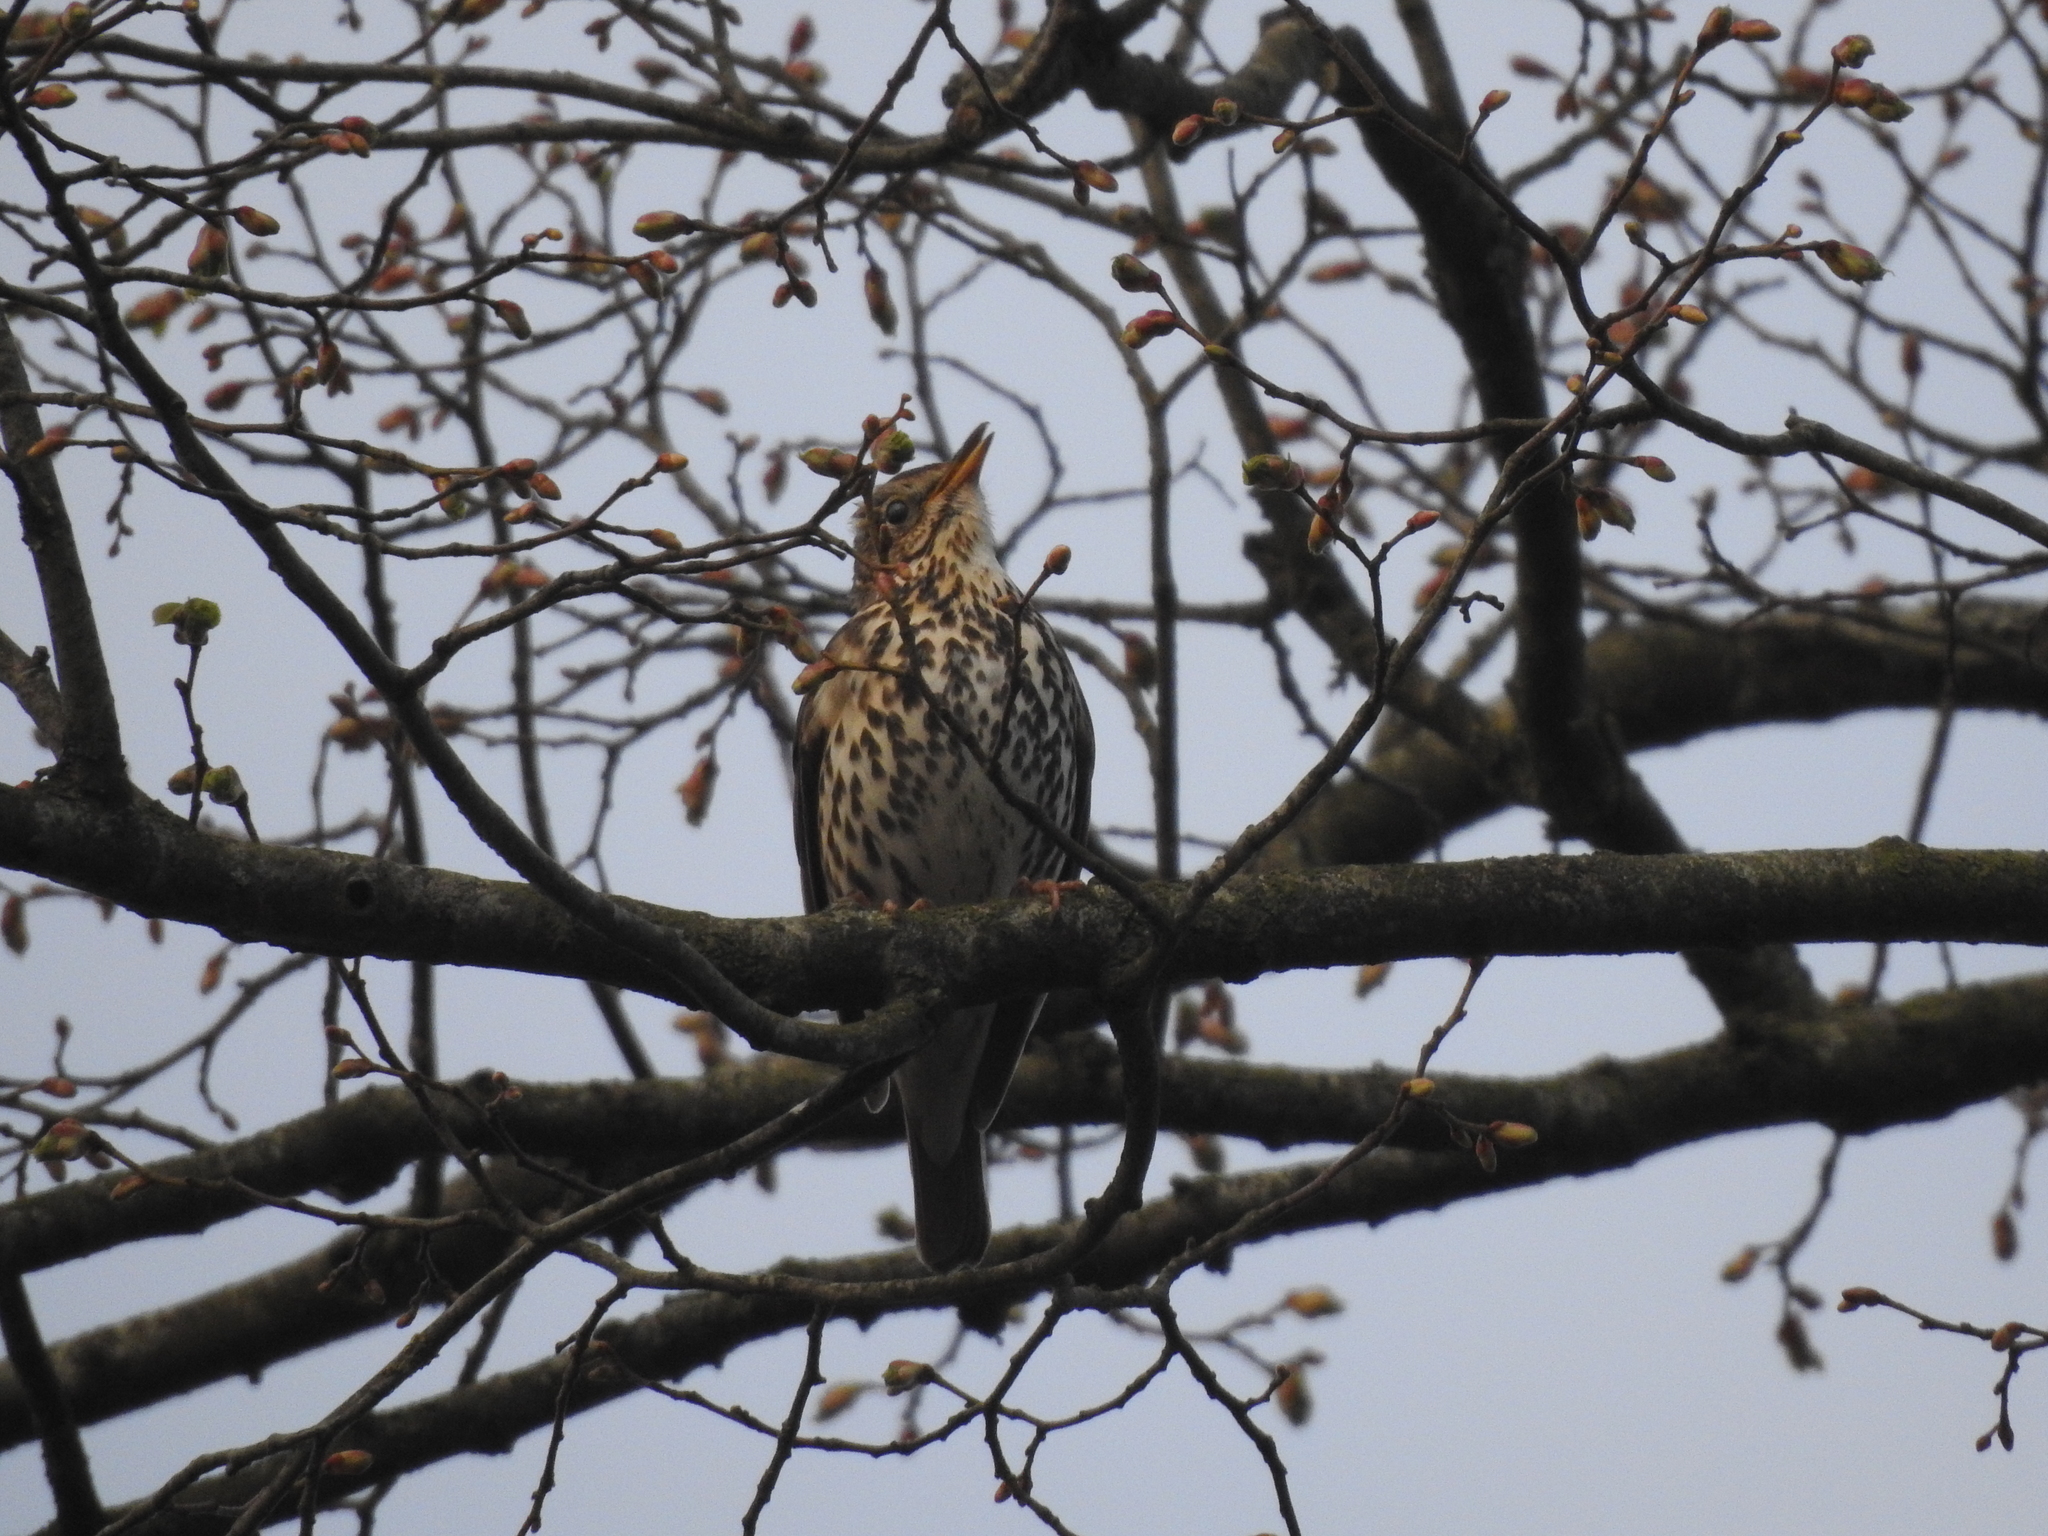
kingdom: Animalia
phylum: Chordata
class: Aves
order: Passeriformes
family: Turdidae
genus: Turdus
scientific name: Turdus philomelos
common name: Song thrush
